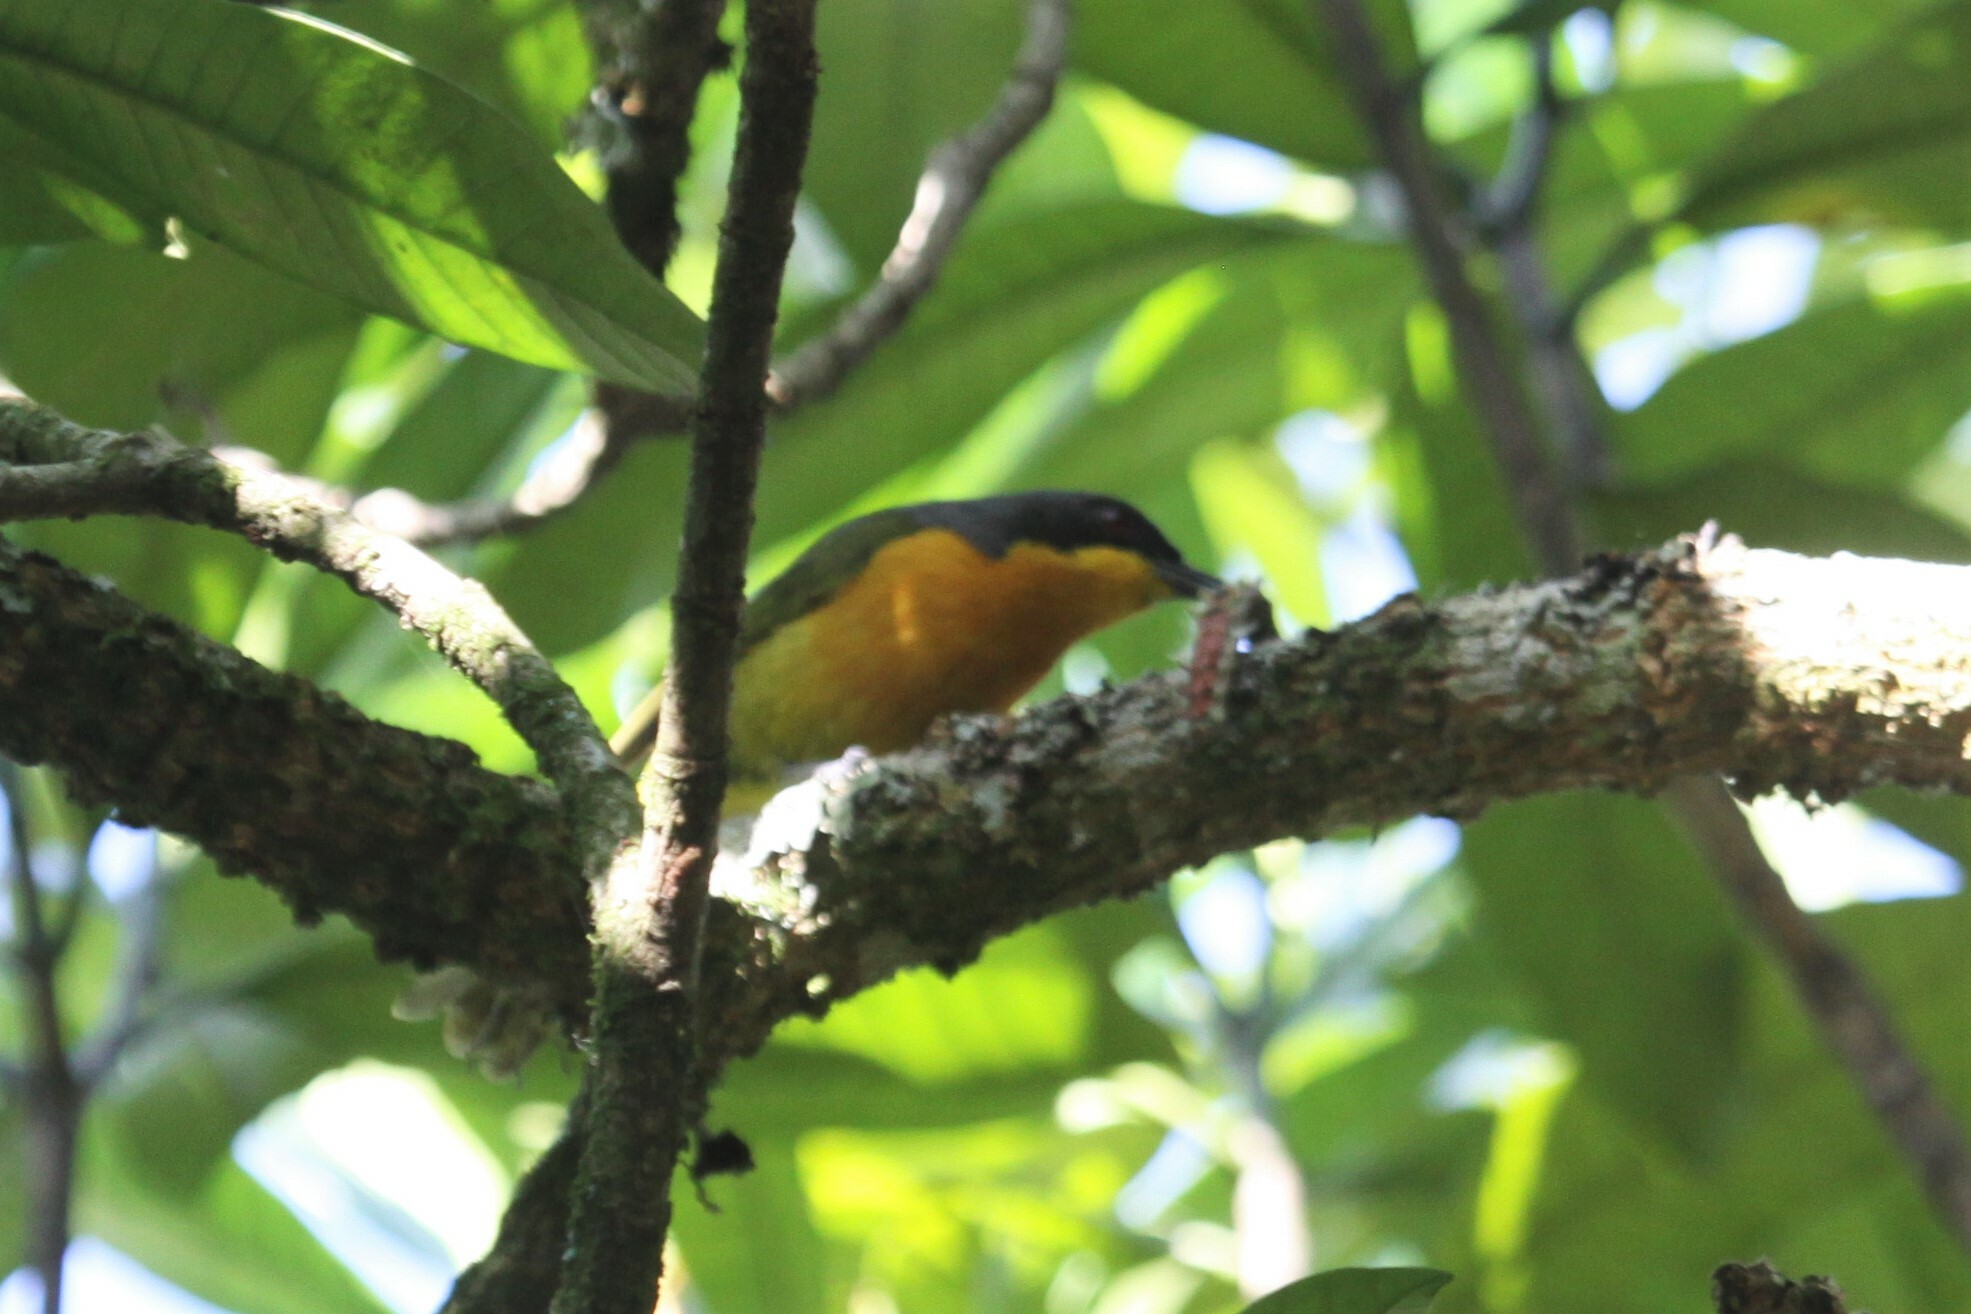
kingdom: Animalia
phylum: Chordata
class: Aves
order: Passeriformes
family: Malaconotidae
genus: Chlorophoneus
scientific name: Chlorophoneus nigrifrons
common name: Black-fronted bushshrike
